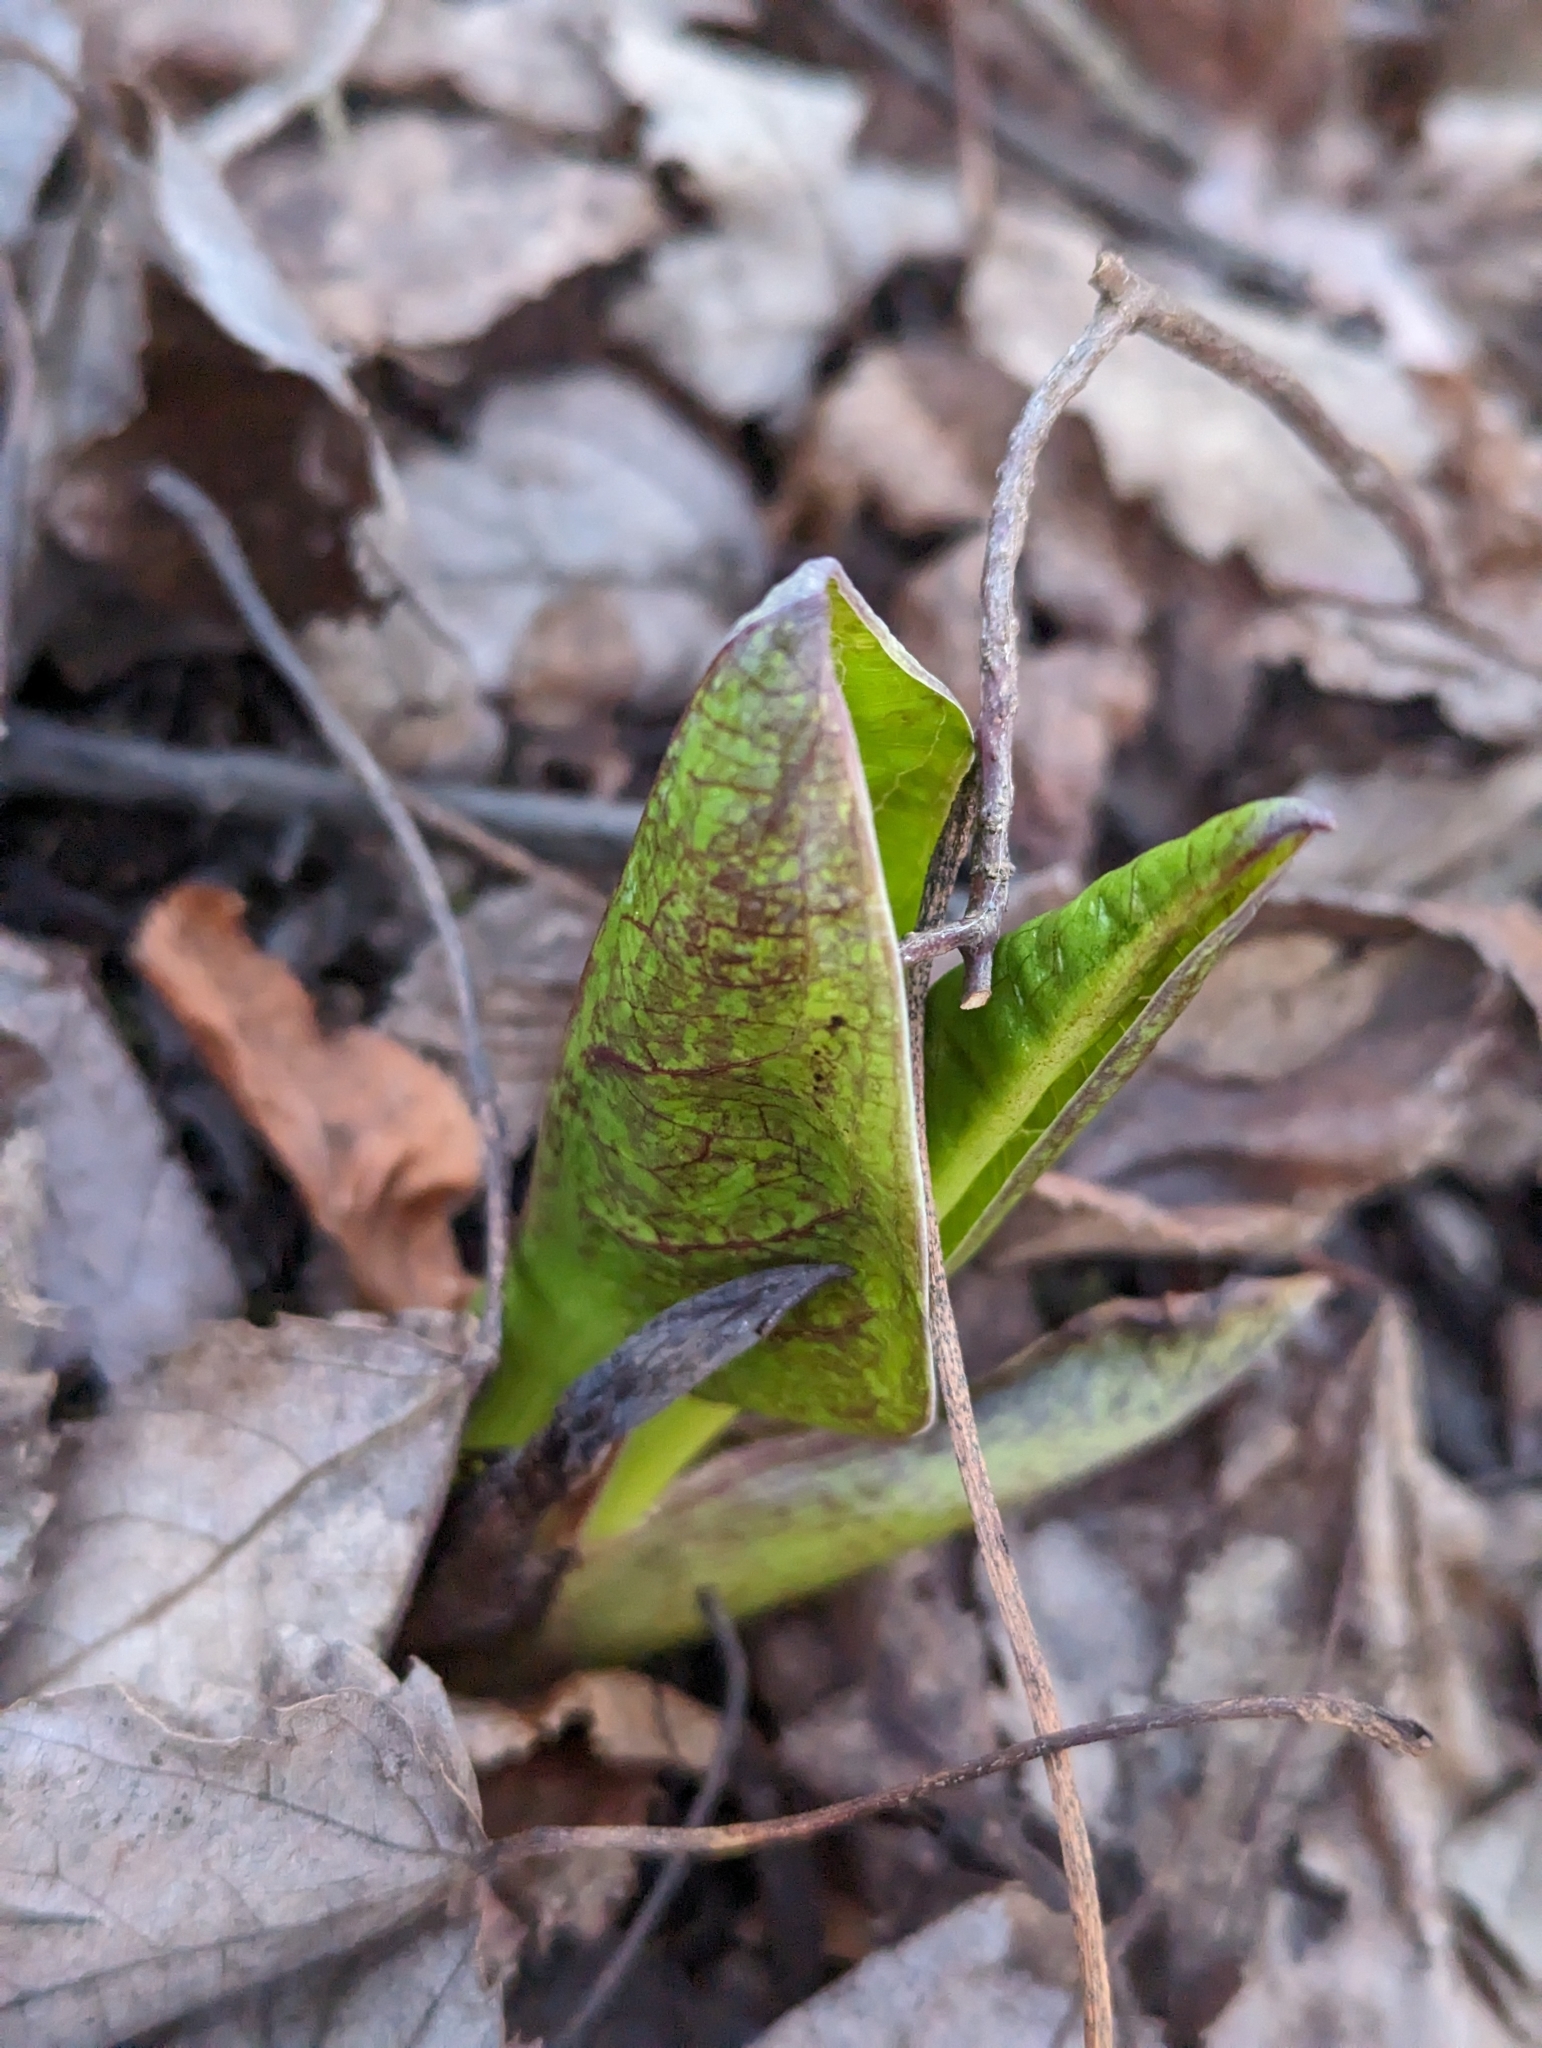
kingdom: Plantae
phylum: Tracheophyta
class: Liliopsida
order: Alismatales
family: Araceae
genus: Symplocarpus
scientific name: Symplocarpus foetidus
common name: Eastern skunk cabbage
